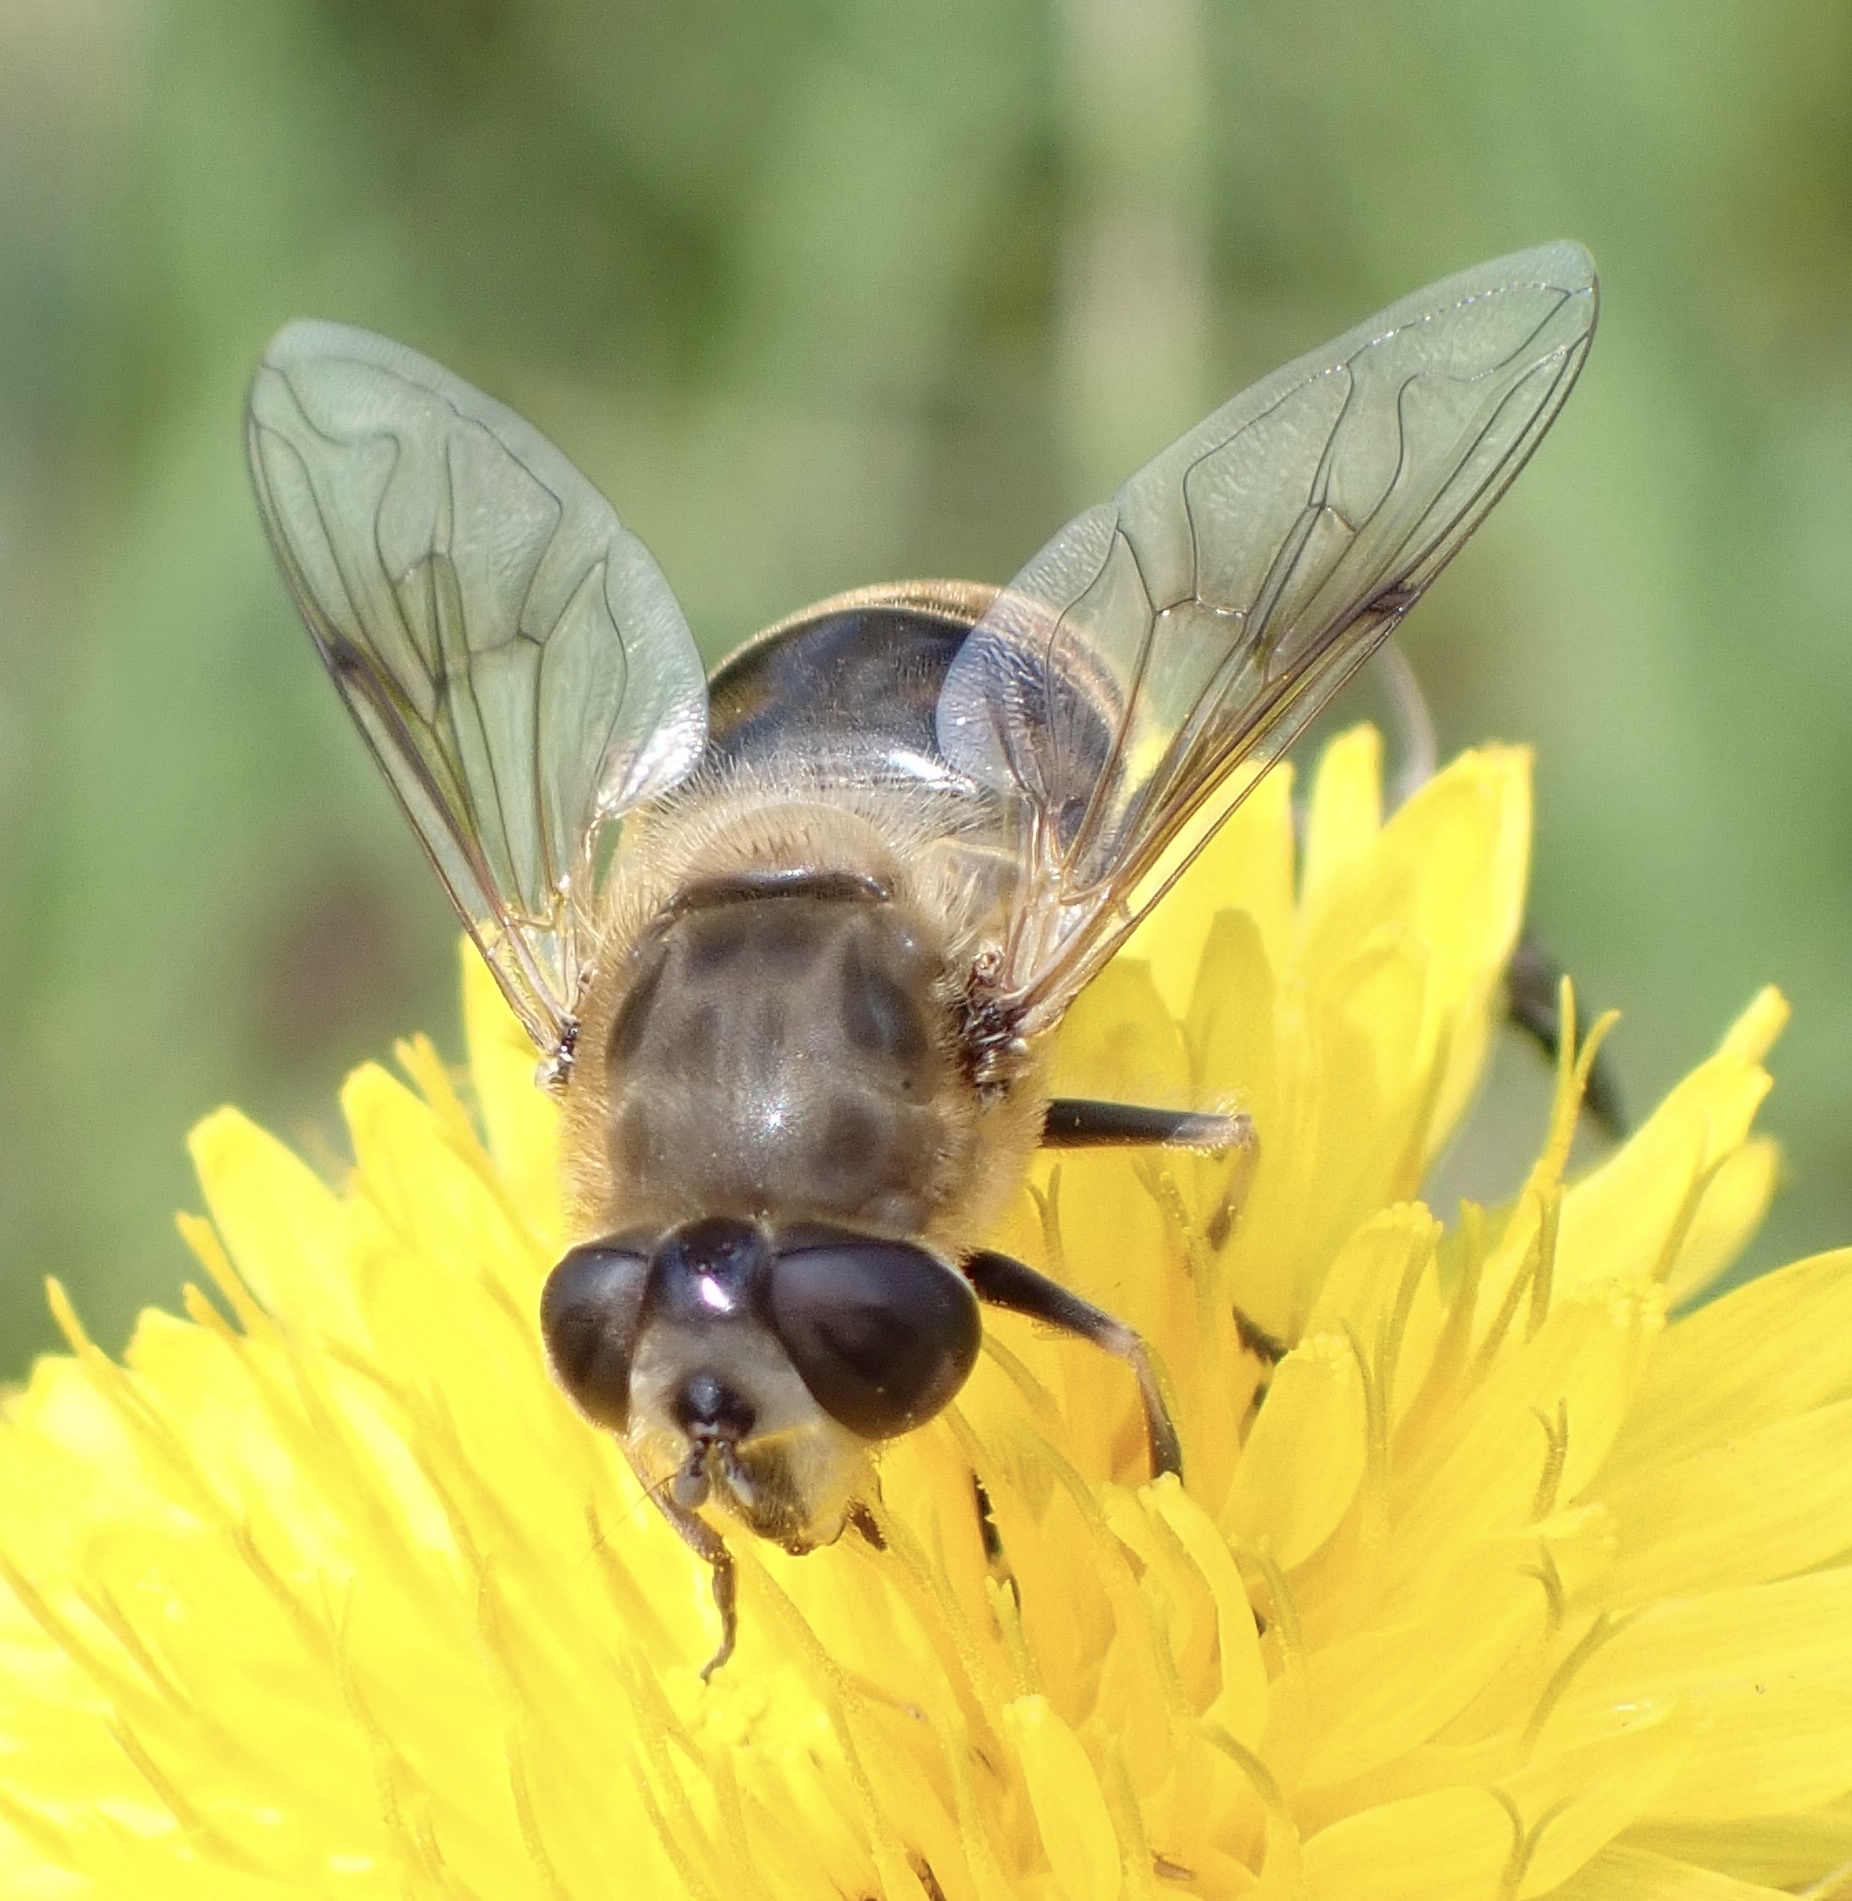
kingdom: Animalia
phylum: Arthropoda
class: Insecta
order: Diptera
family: Syrphidae
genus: Eristalis
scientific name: Eristalis tenax
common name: Drone fly
